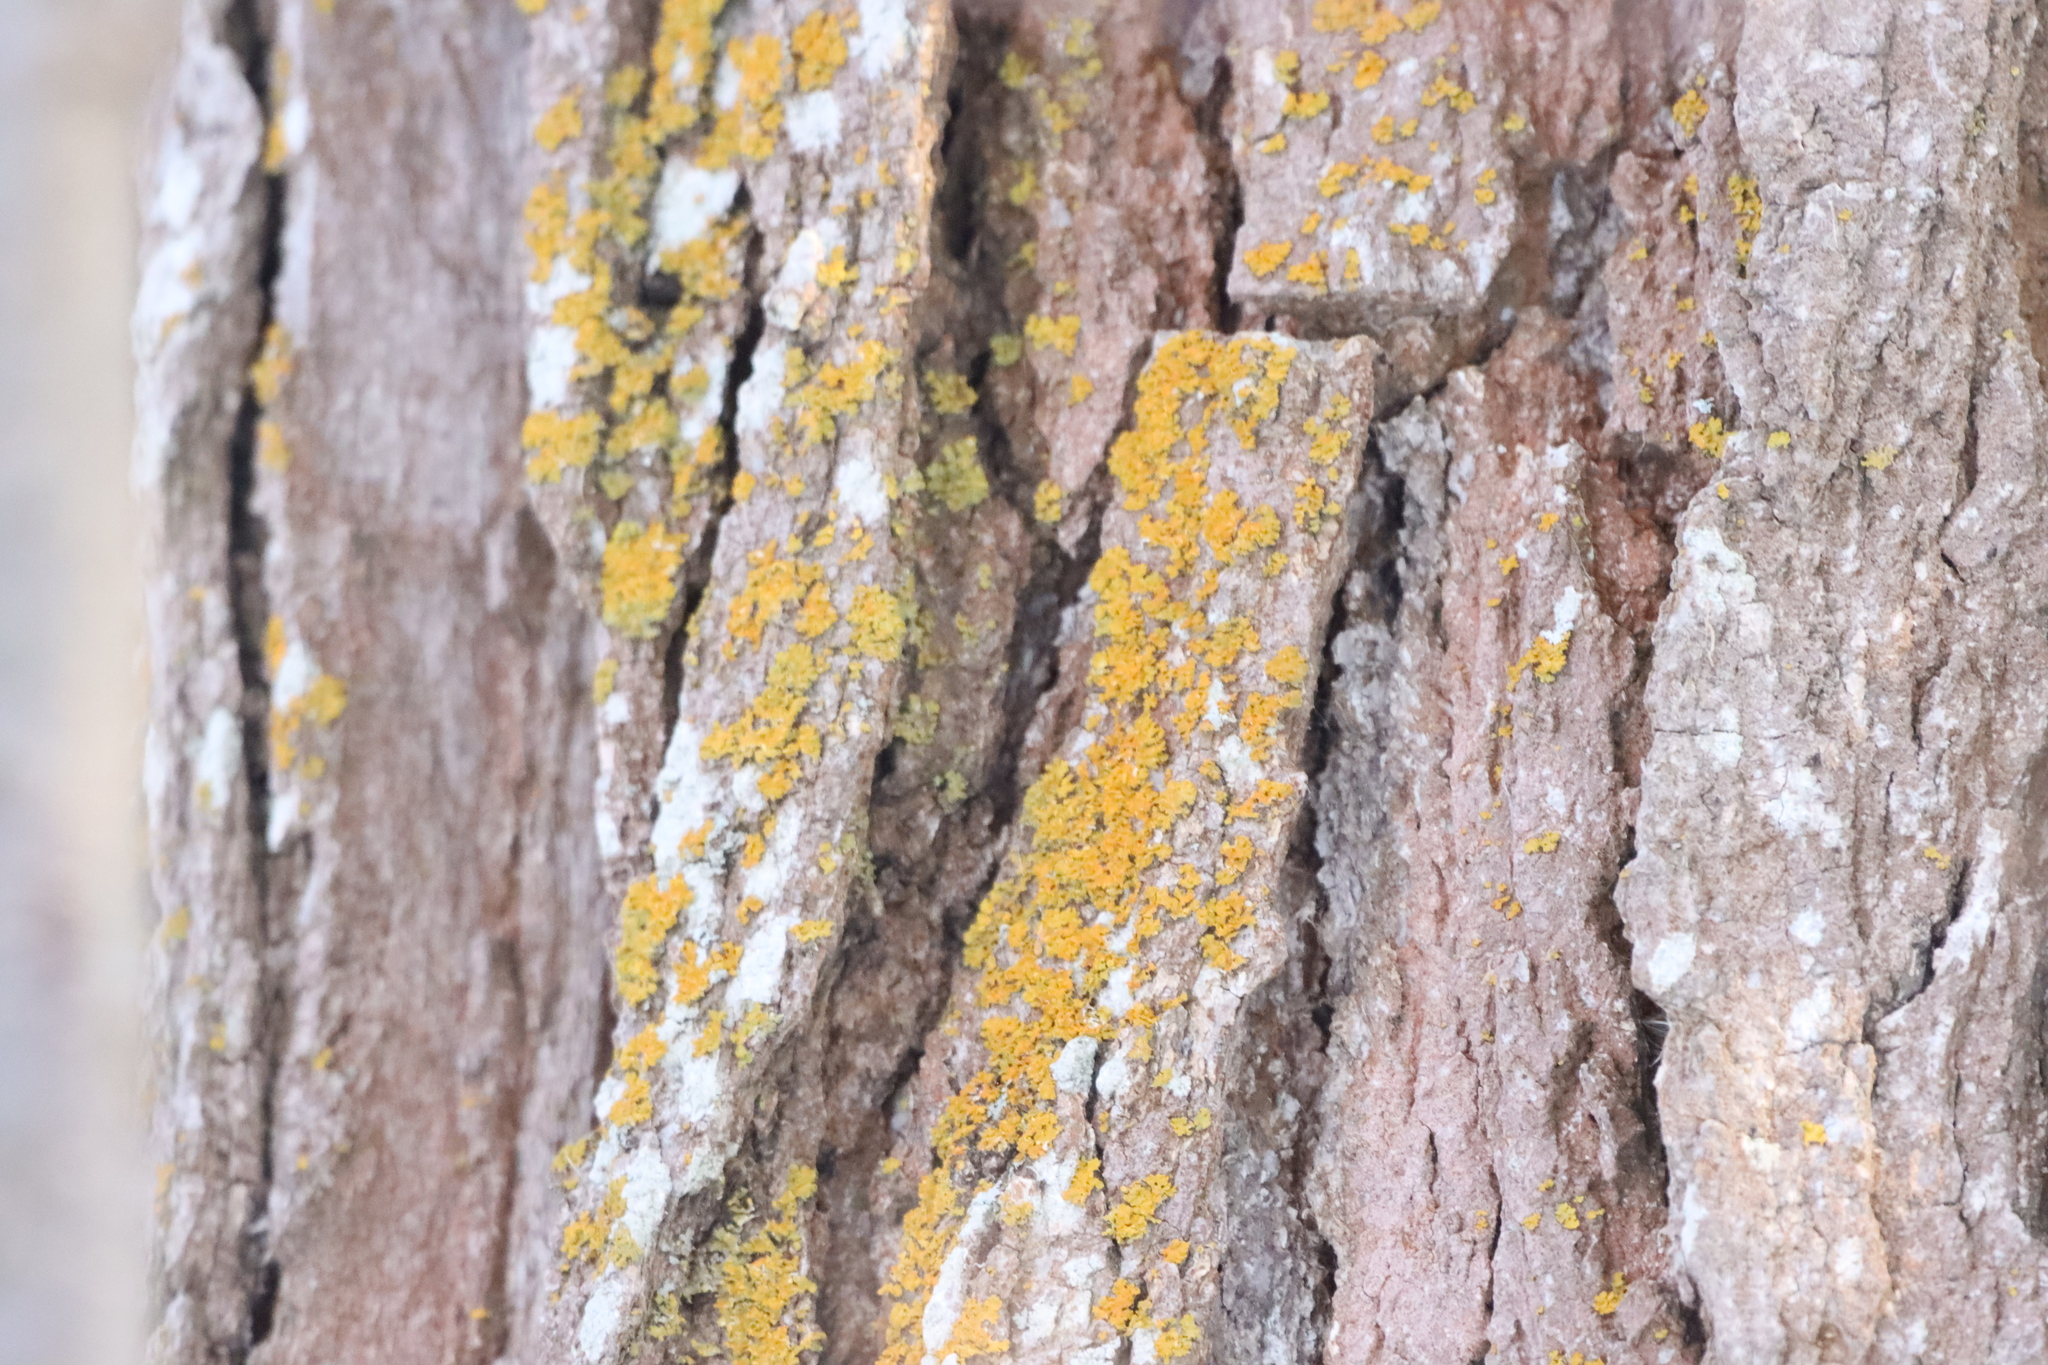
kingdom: Fungi
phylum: Ascomycota
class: Candelariomycetes
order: Candelariales
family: Candelariaceae
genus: Candelaria
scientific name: Candelaria concolor
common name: Candleflame lichen
